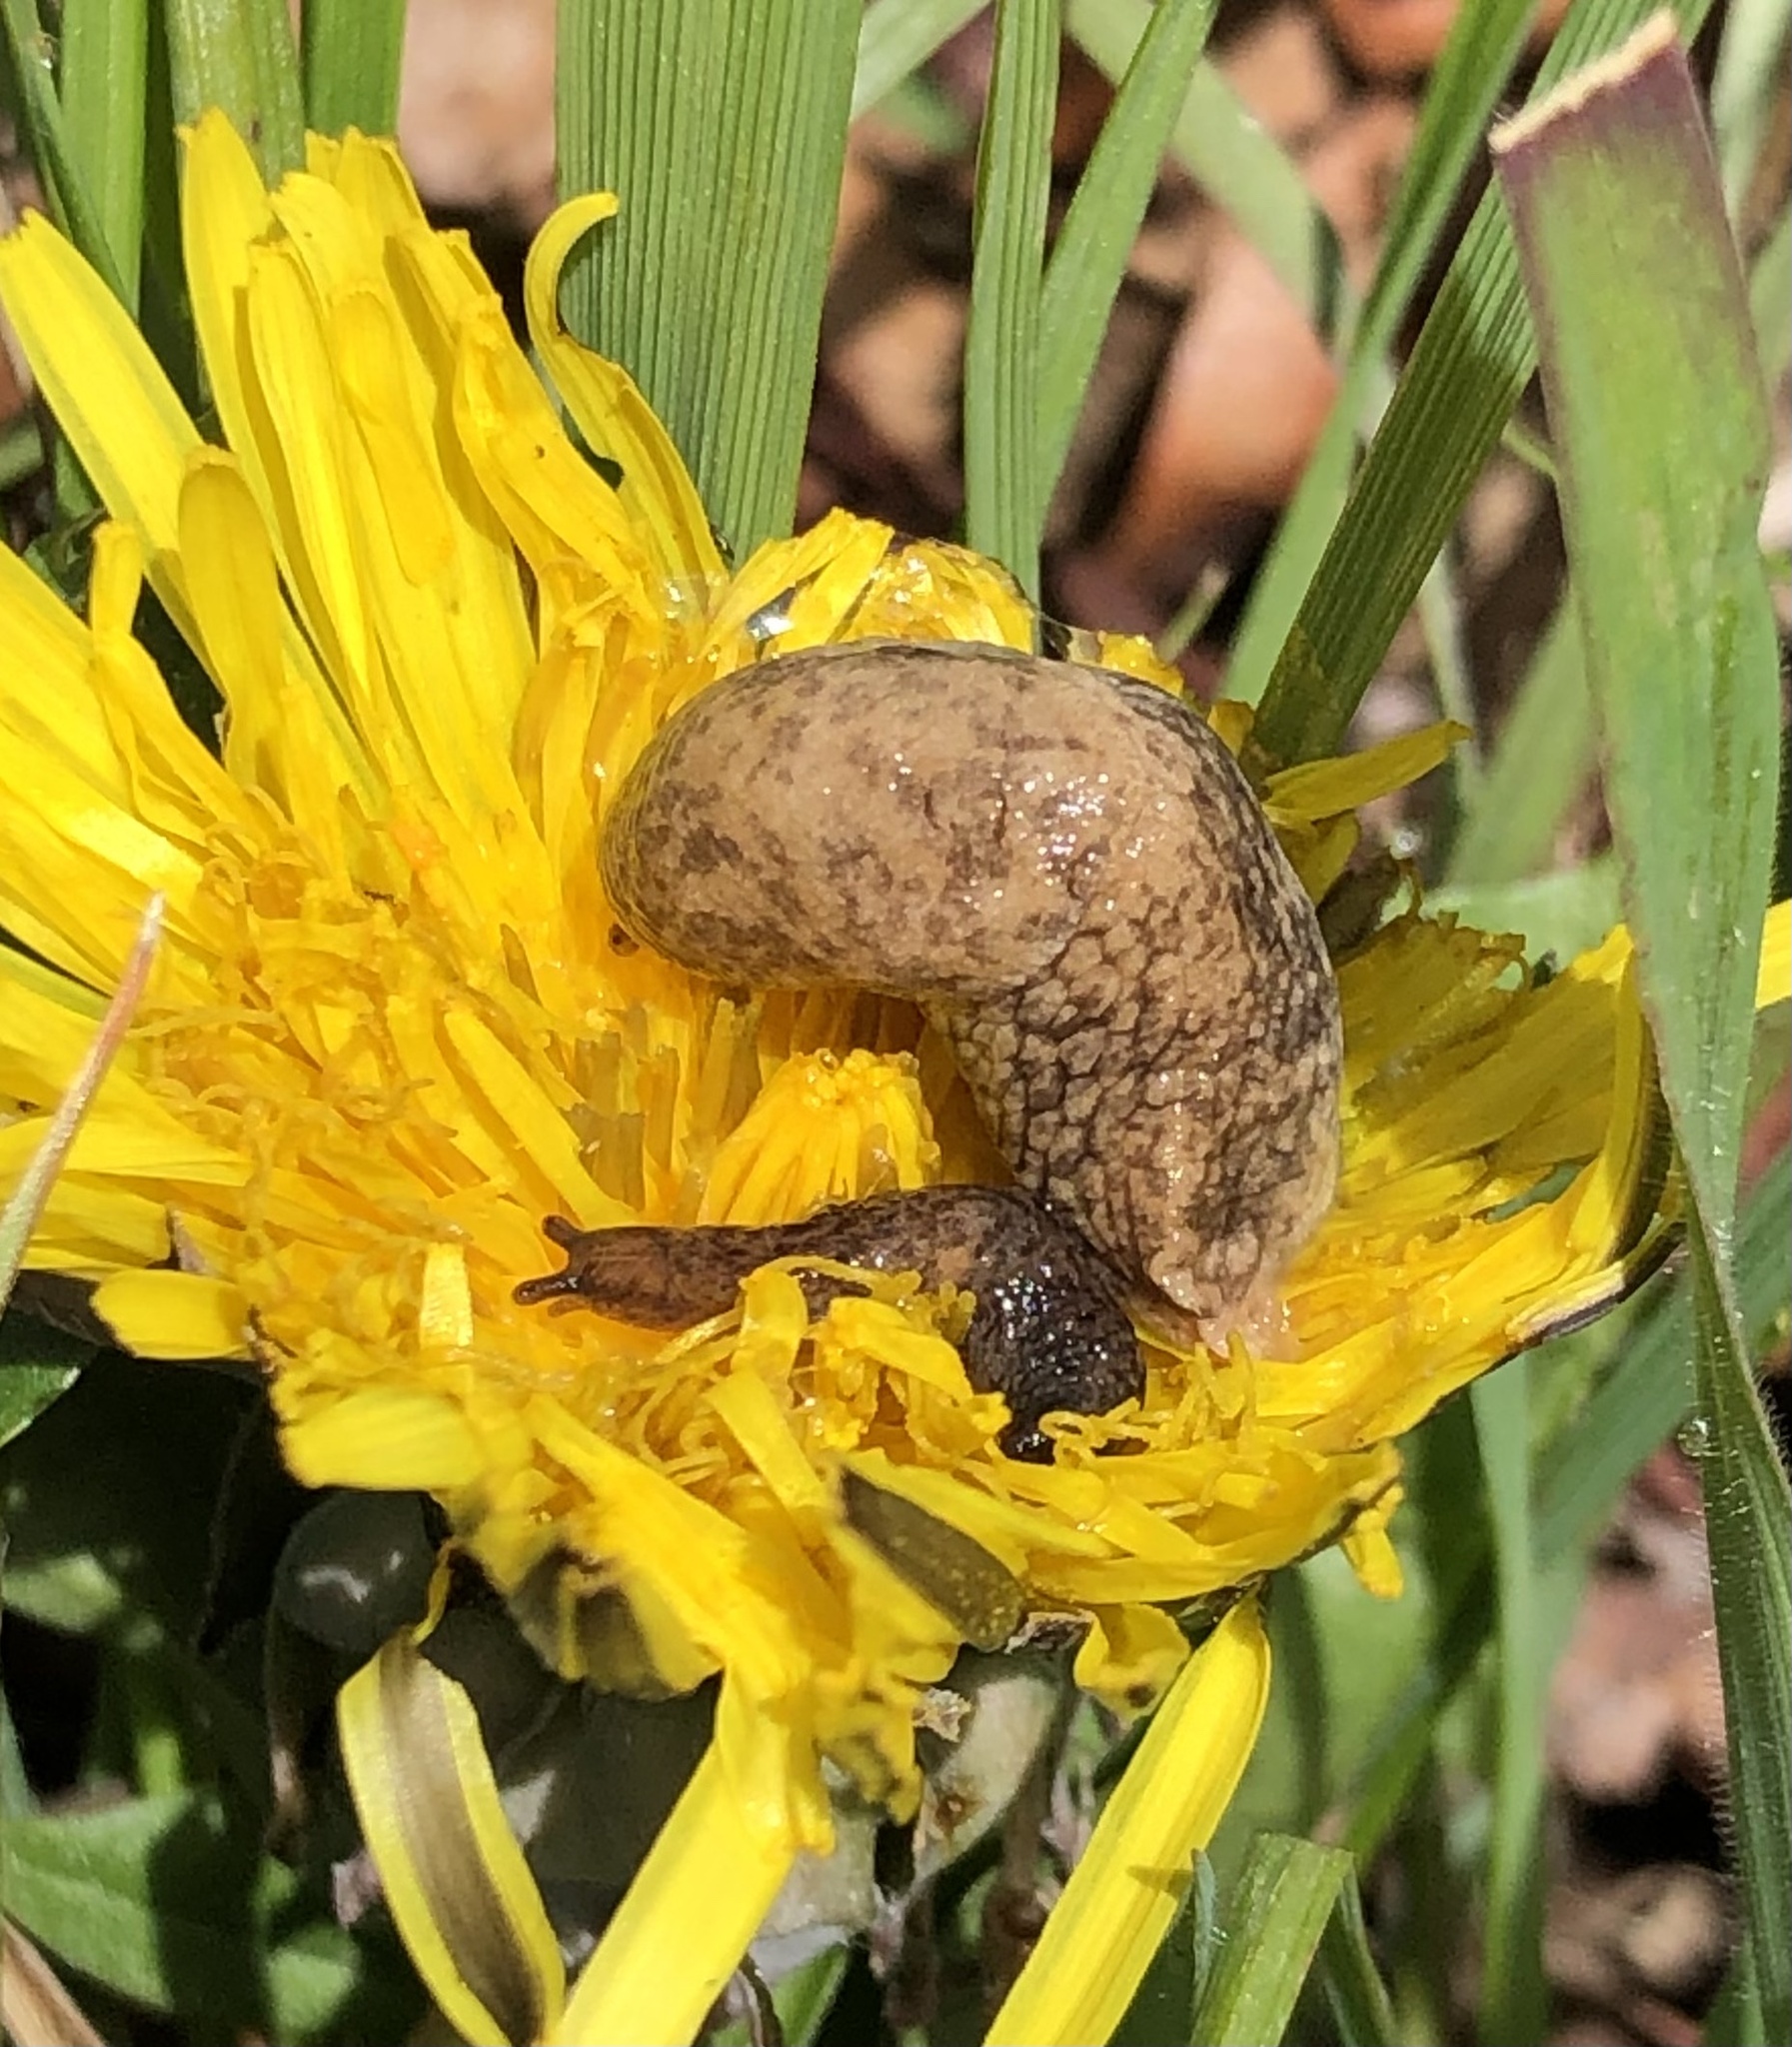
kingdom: Animalia
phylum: Mollusca
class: Gastropoda
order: Stylommatophora
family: Agriolimacidae
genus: Deroceras
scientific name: Deroceras reticulatum
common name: Gray field slug
